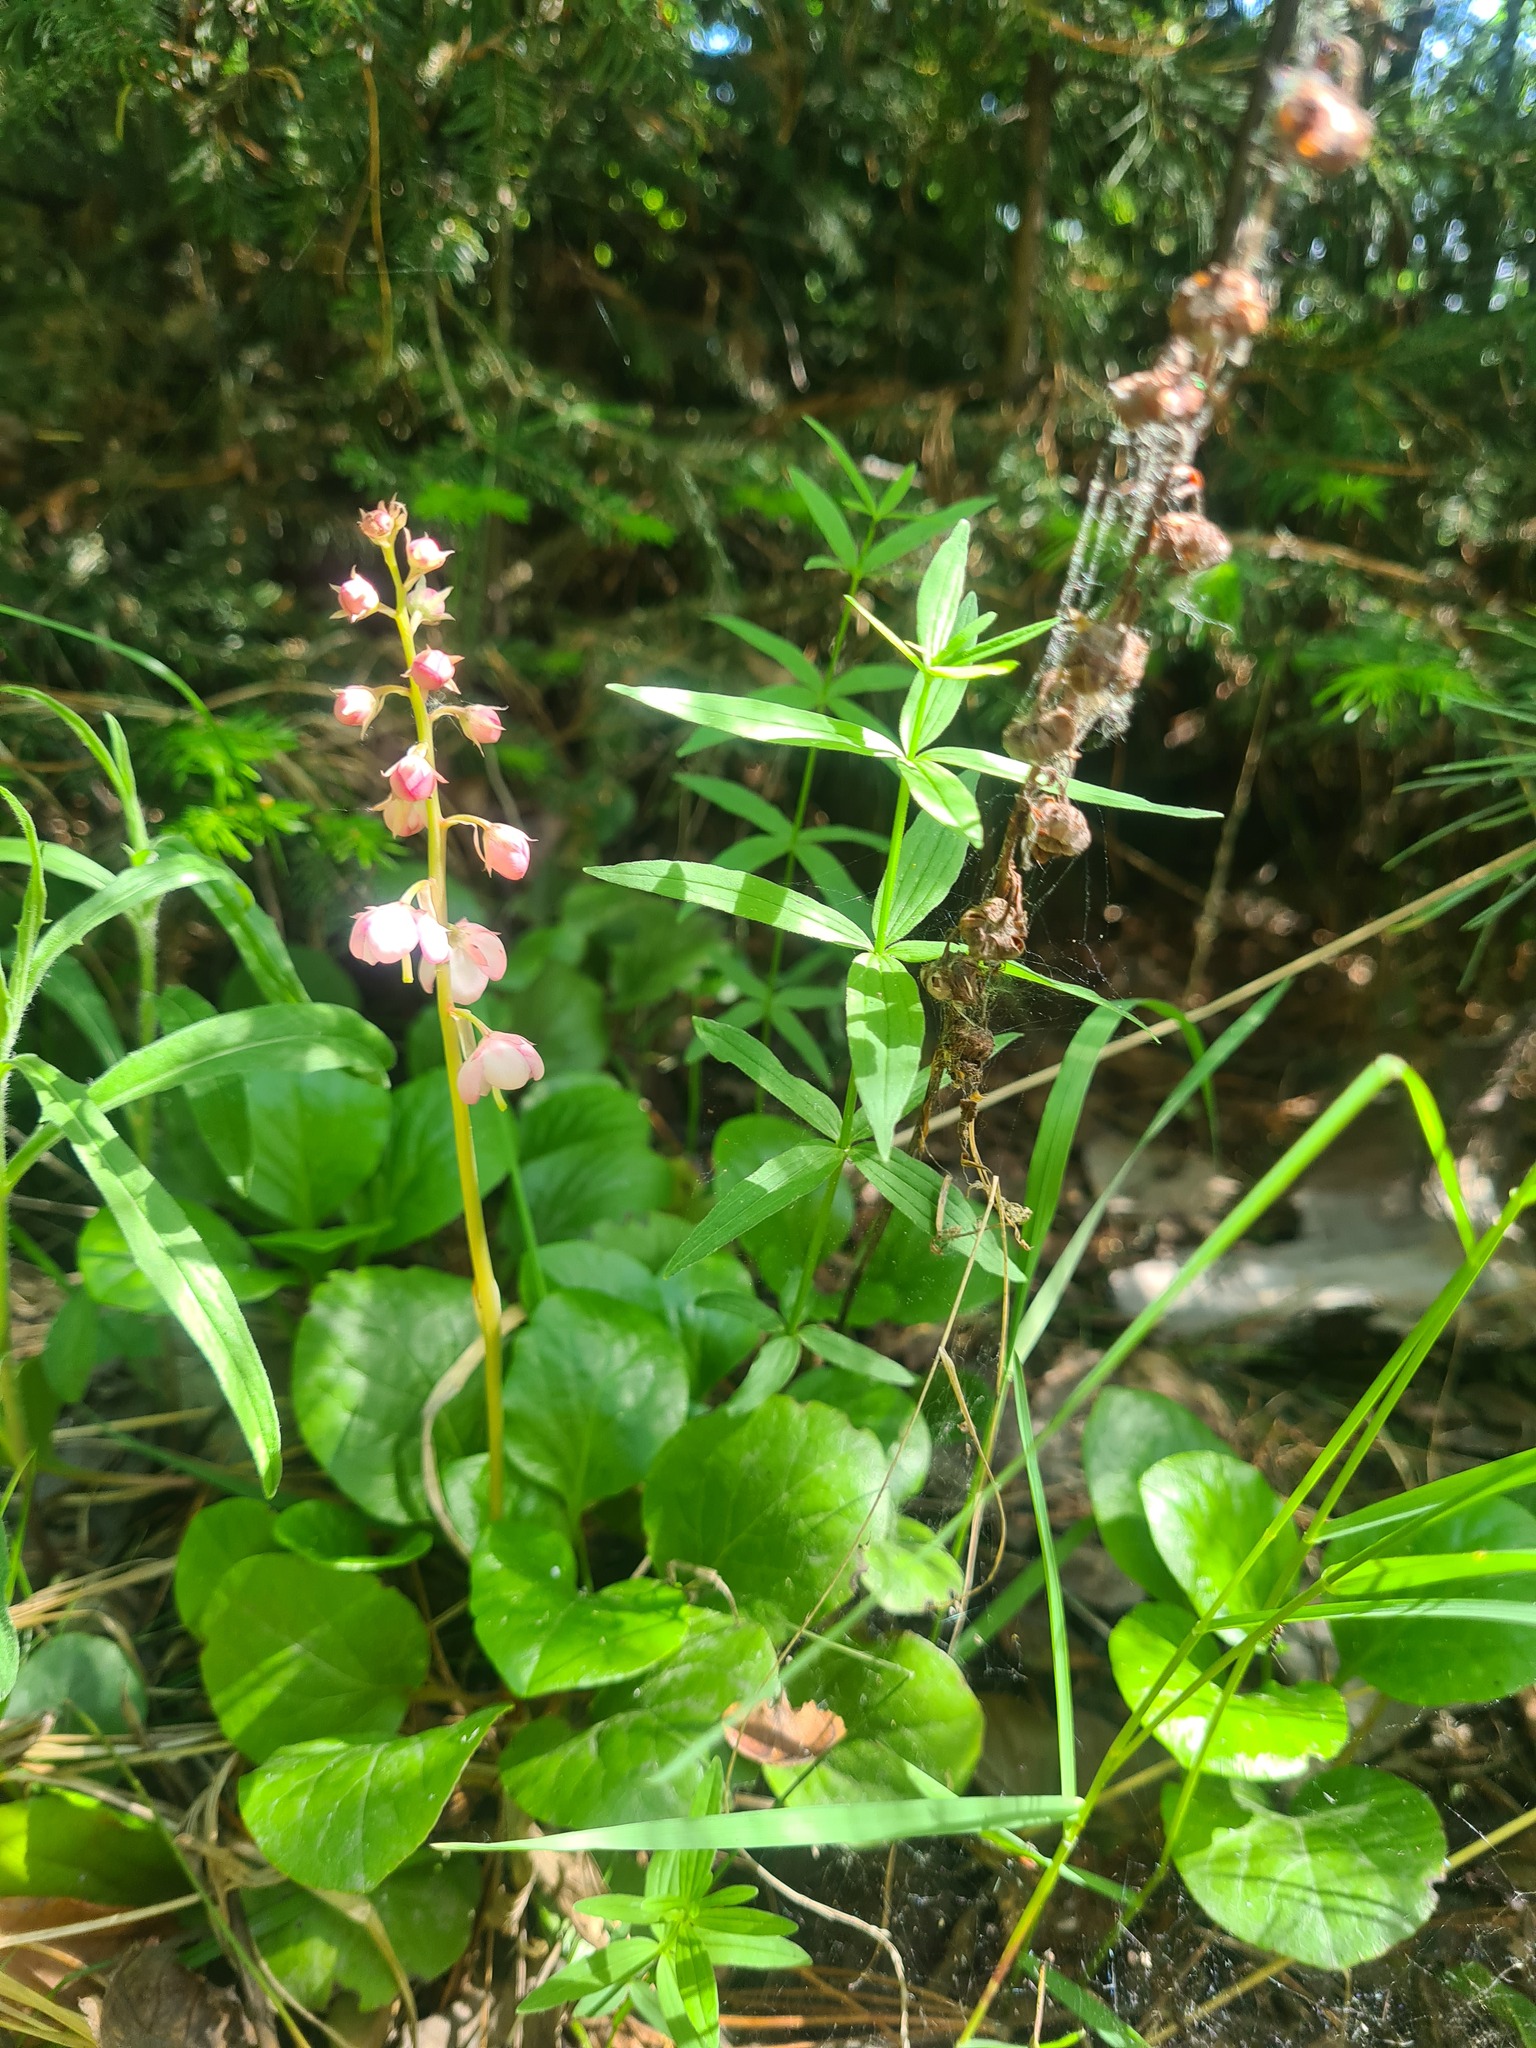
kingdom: Plantae
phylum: Tracheophyta
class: Magnoliopsida
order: Ericales
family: Ericaceae
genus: Pyrola
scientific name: Pyrola asarifolia
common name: Bog wintergreen
